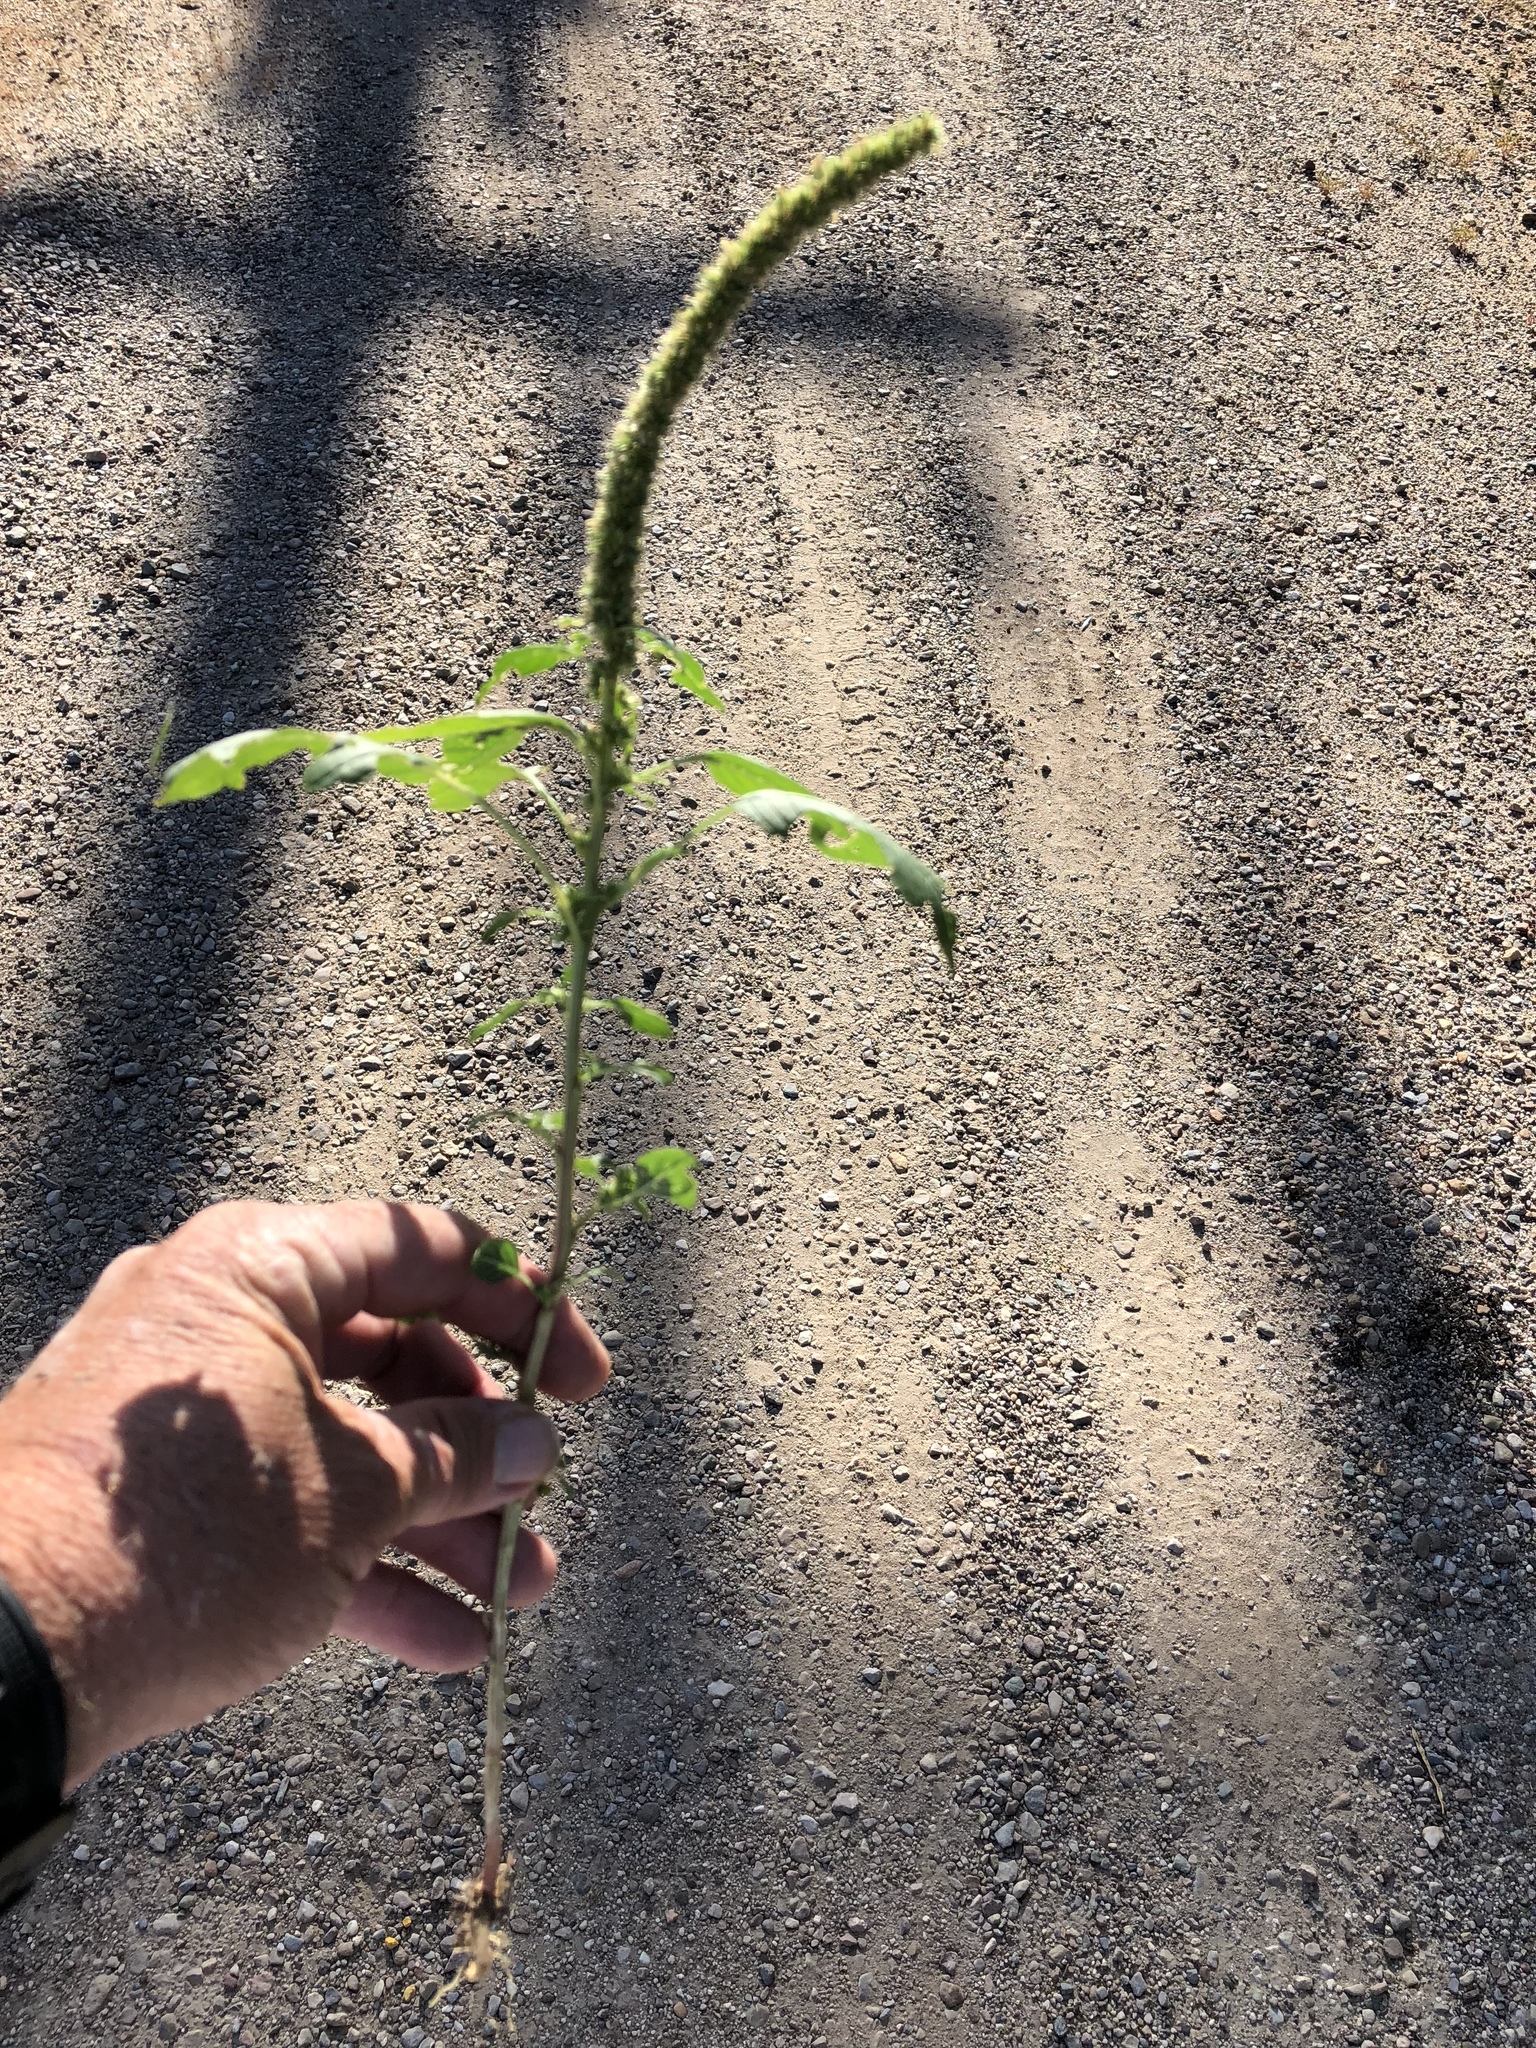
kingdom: Plantae
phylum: Tracheophyta
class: Magnoliopsida
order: Caryophyllales
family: Amaranthaceae
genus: Amaranthus
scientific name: Amaranthus palmeri
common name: Dioecious amaranth
